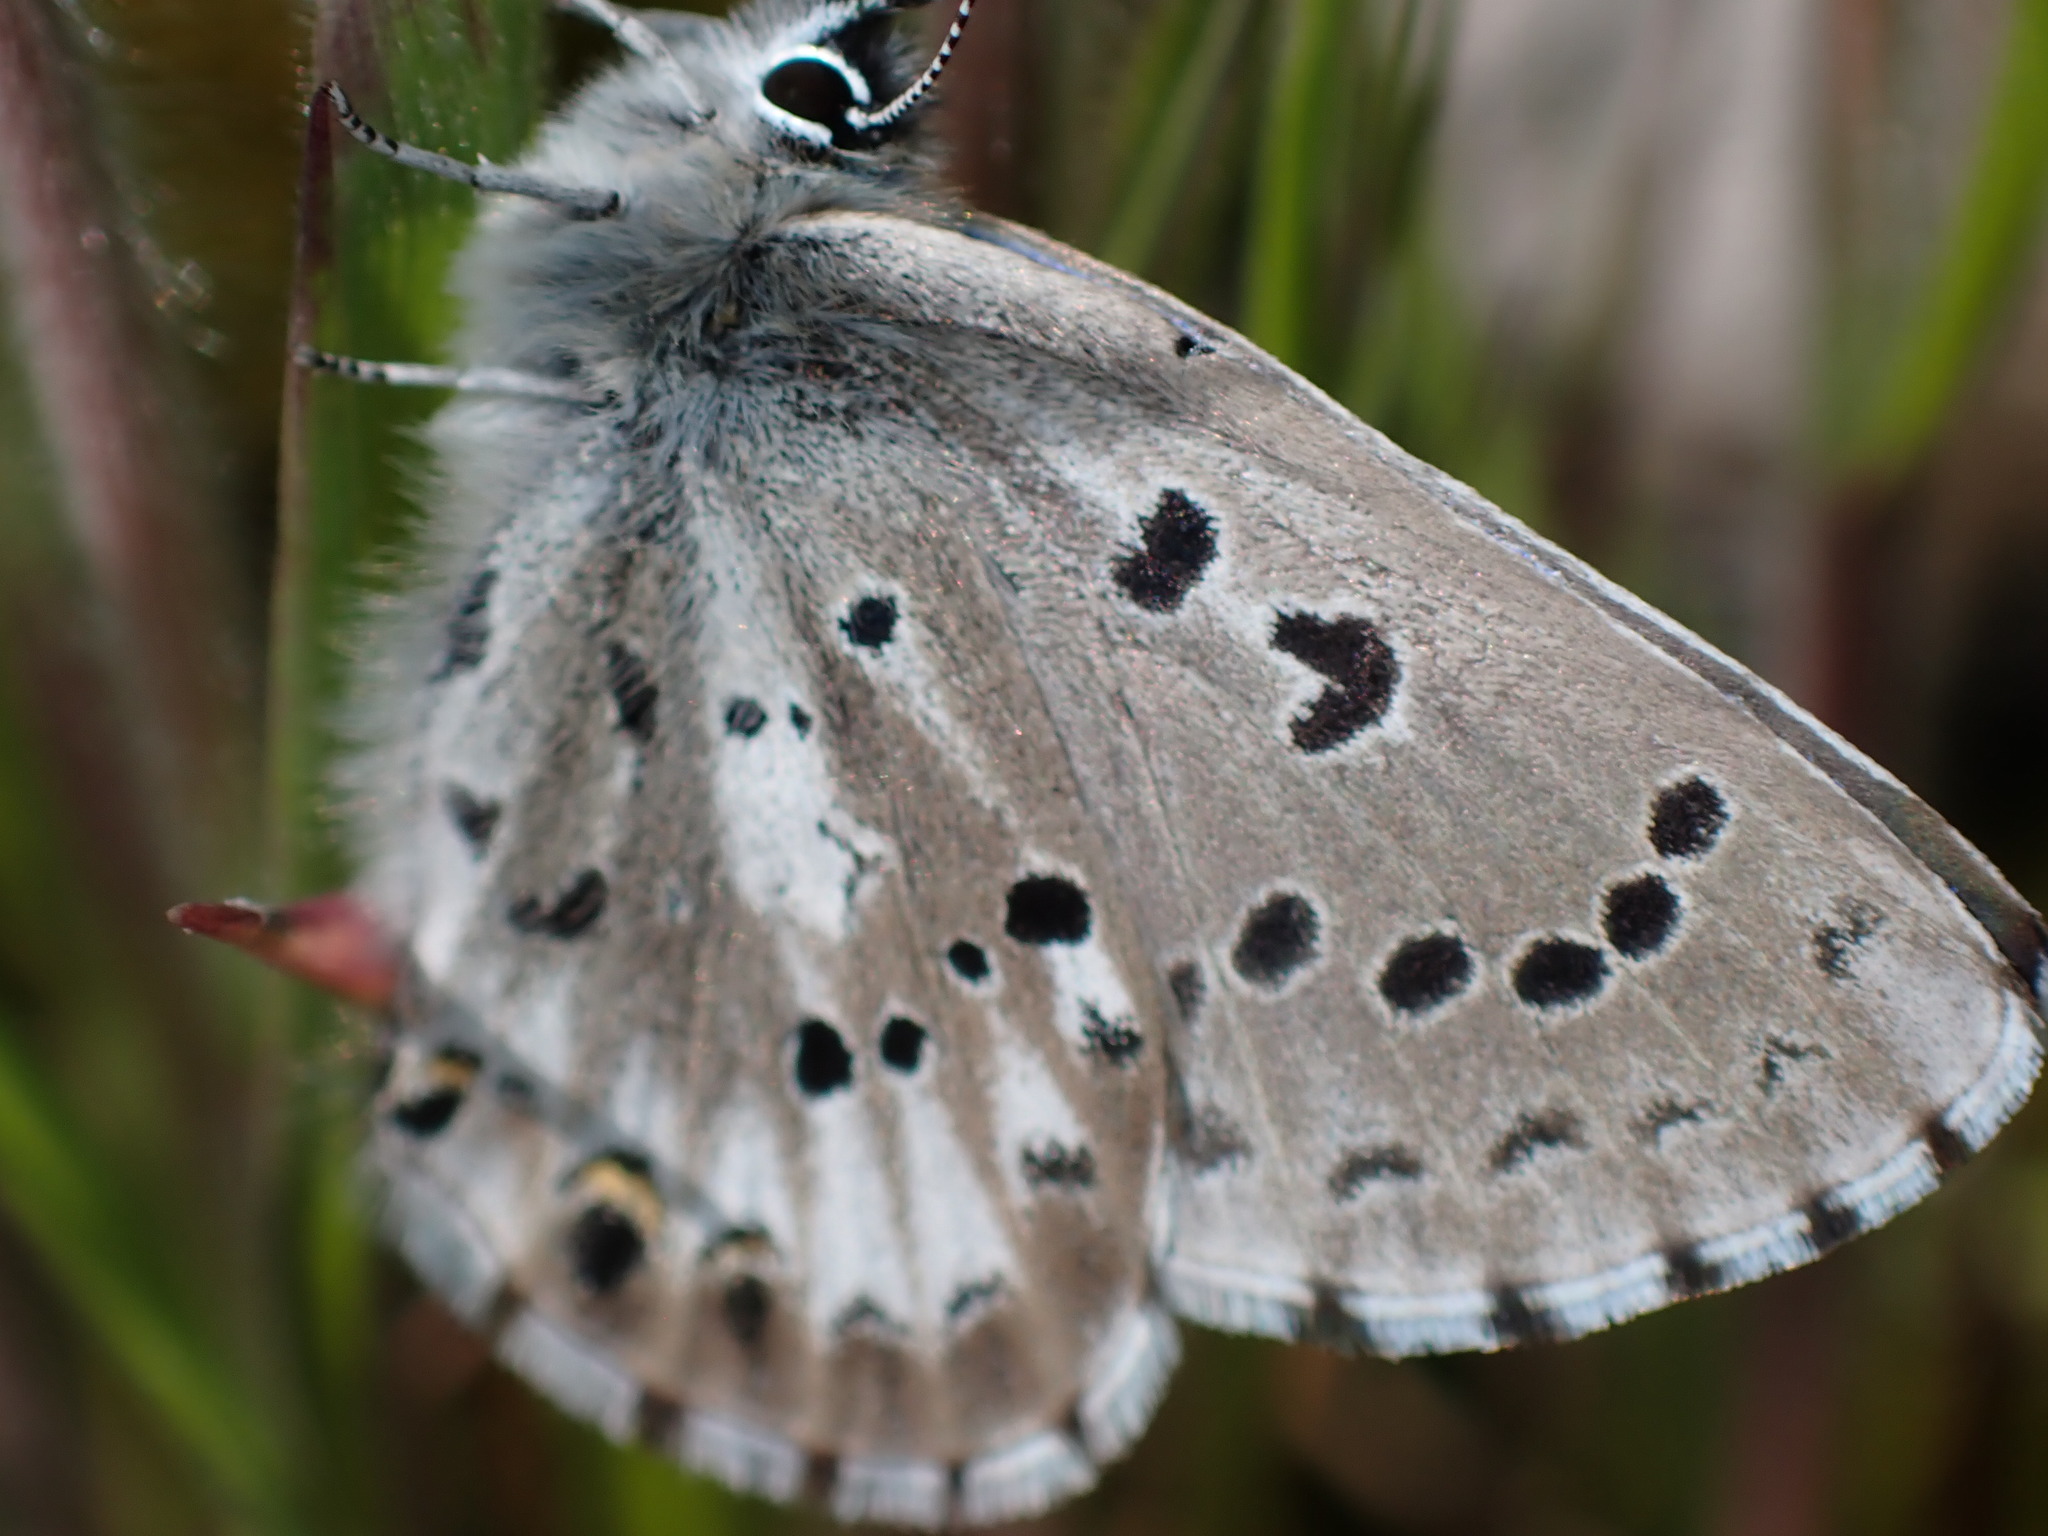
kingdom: Animalia
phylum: Arthropoda
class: Insecta
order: Lepidoptera
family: Lycaenidae
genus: Glaucopsyche
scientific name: Glaucopsyche piasus
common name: Arrowhead blue
